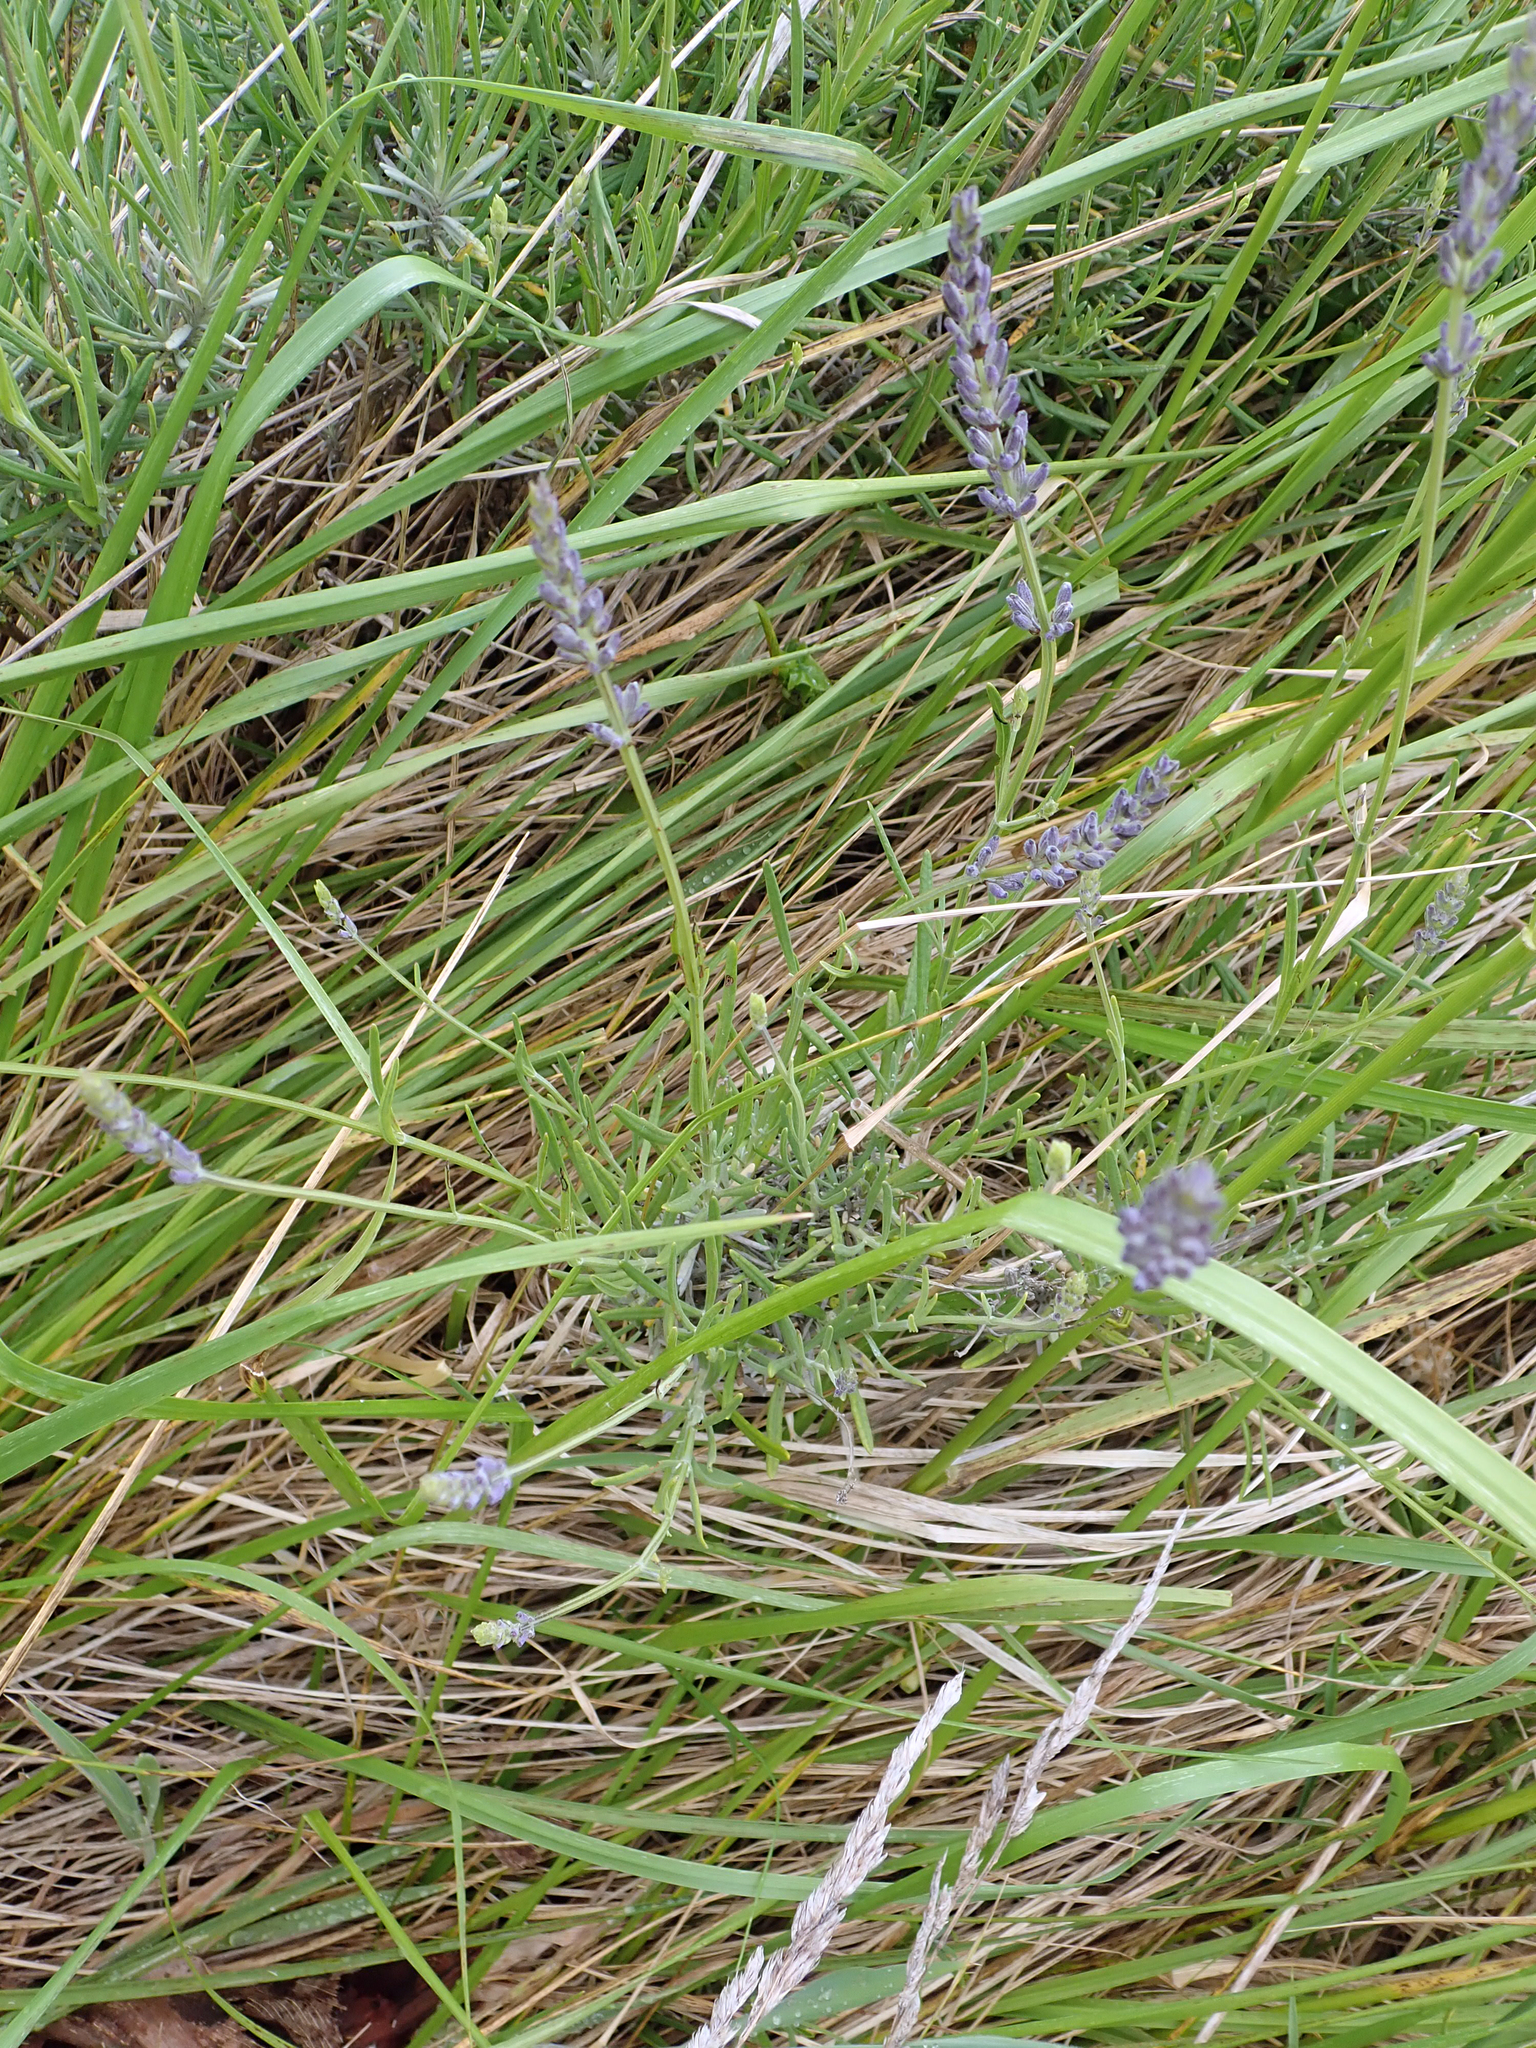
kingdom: Plantae
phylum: Tracheophyta
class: Magnoliopsida
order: Lamiales
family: Lamiaceae
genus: Lavandula
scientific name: Lavandula angustifolia
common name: Garden lavender
